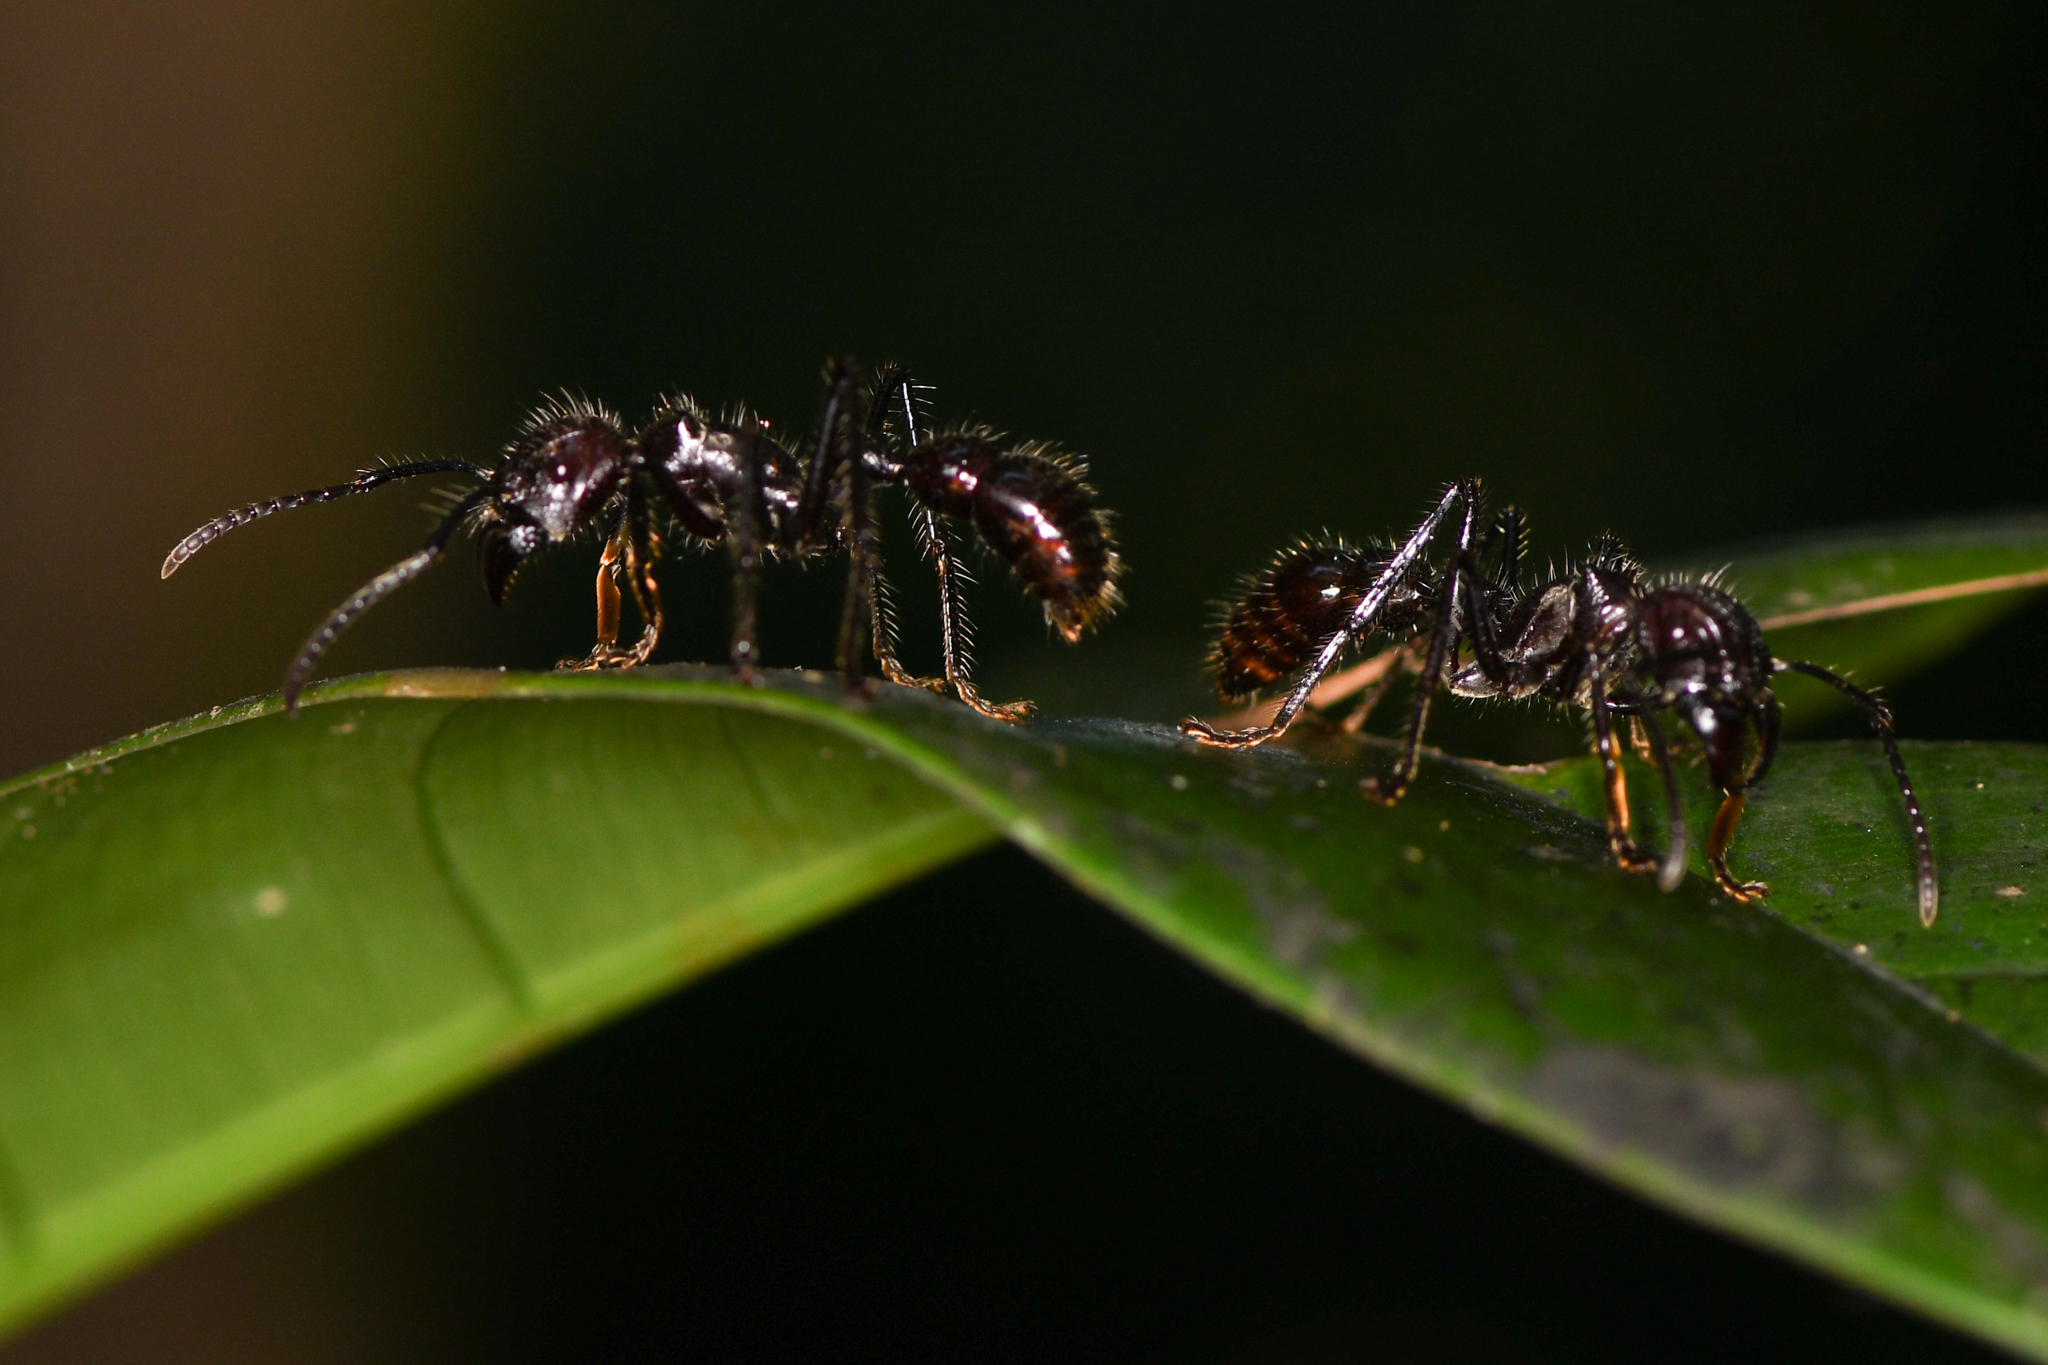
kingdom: Animalia
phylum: Arthropoda
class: Insecta
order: Hymenoptera
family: Formicidae
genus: Paraponera
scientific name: Paraponera clavata
